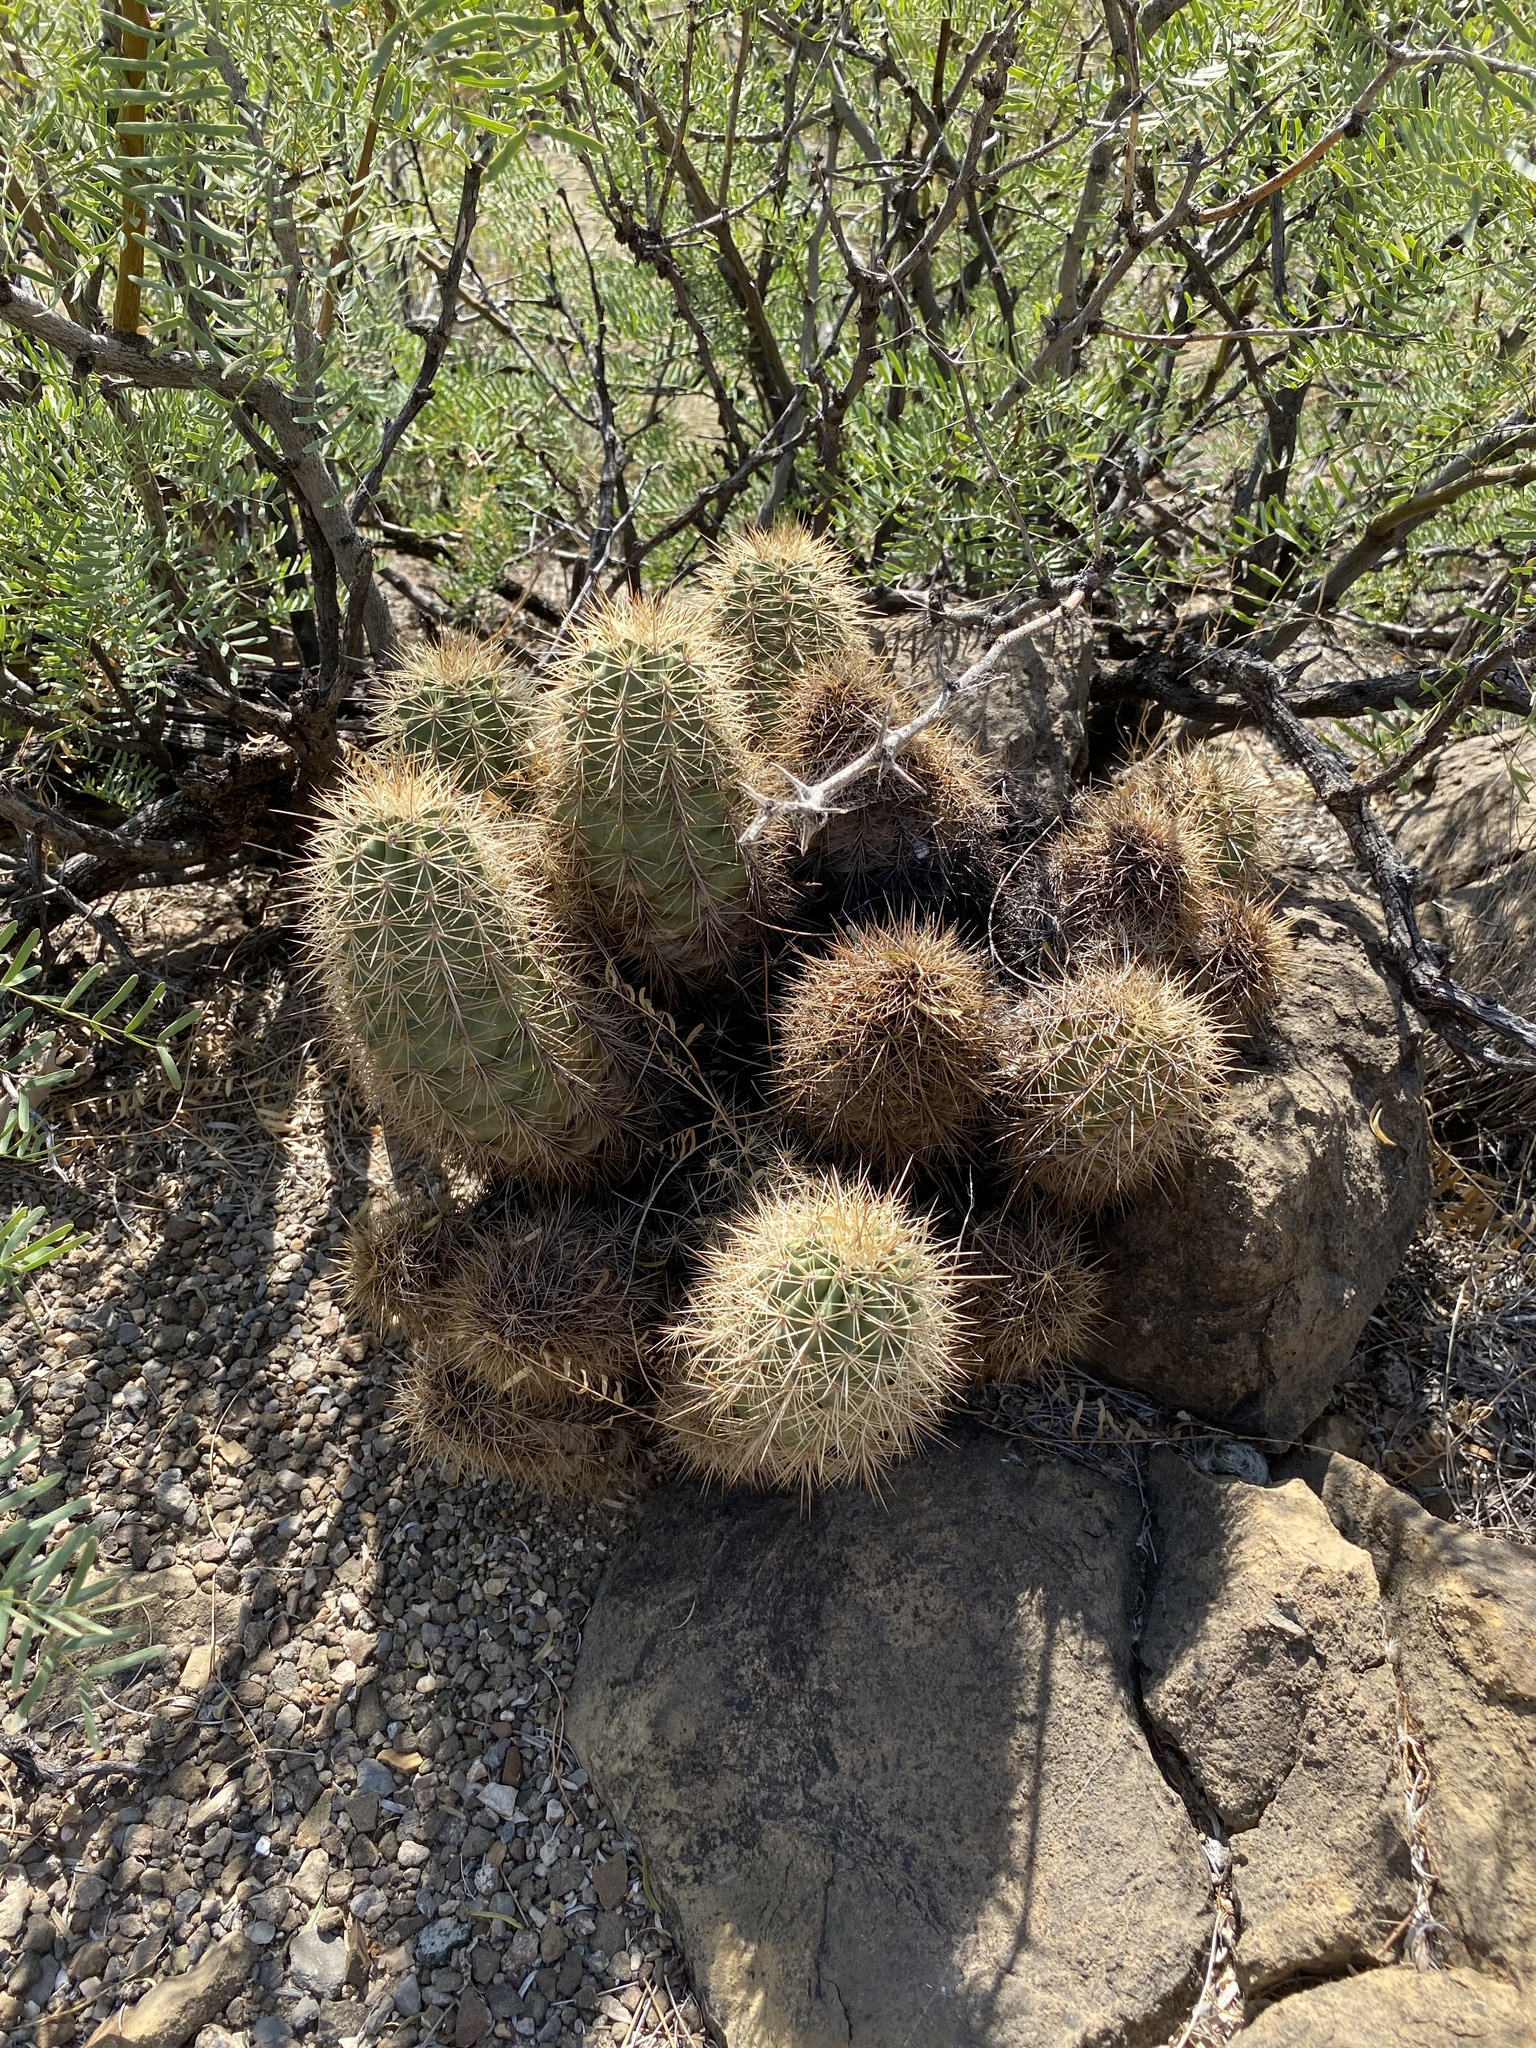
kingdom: Plantae
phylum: Tracheophyta
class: Magnoliopsida
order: Caryophyllales
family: Cactaceae
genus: Echinocereus
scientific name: Echinocereus coccineus
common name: Scarlet hedgehog cactus
